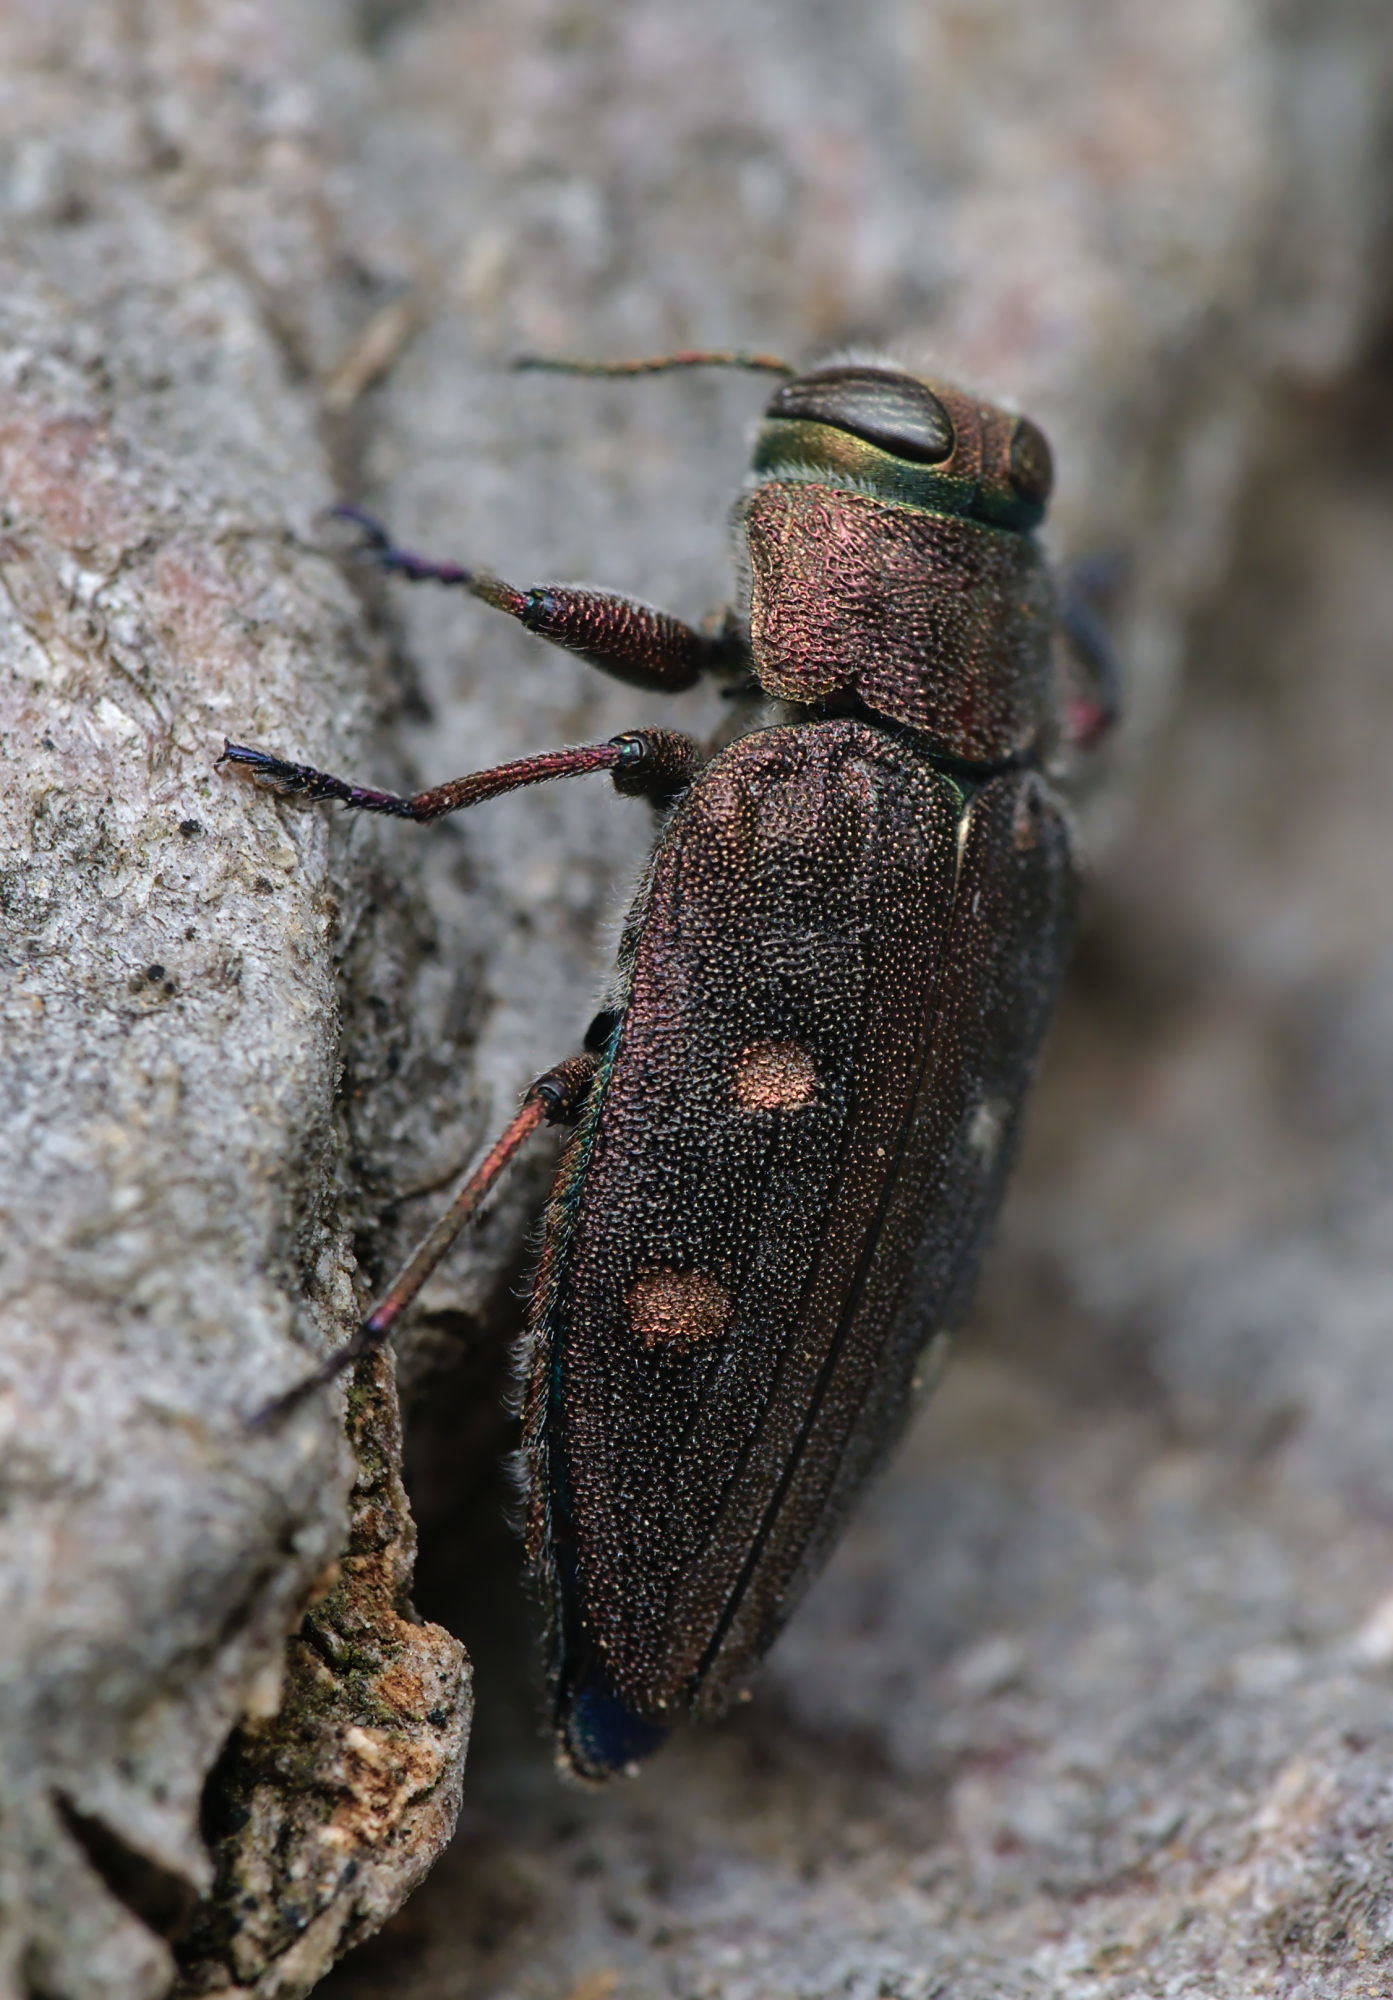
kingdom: Animalia
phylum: Arthropoda
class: Insecta
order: Coleoptera
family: Buprestidae
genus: Chrysobothris
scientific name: Chrysobothris affinis
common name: Beetle
